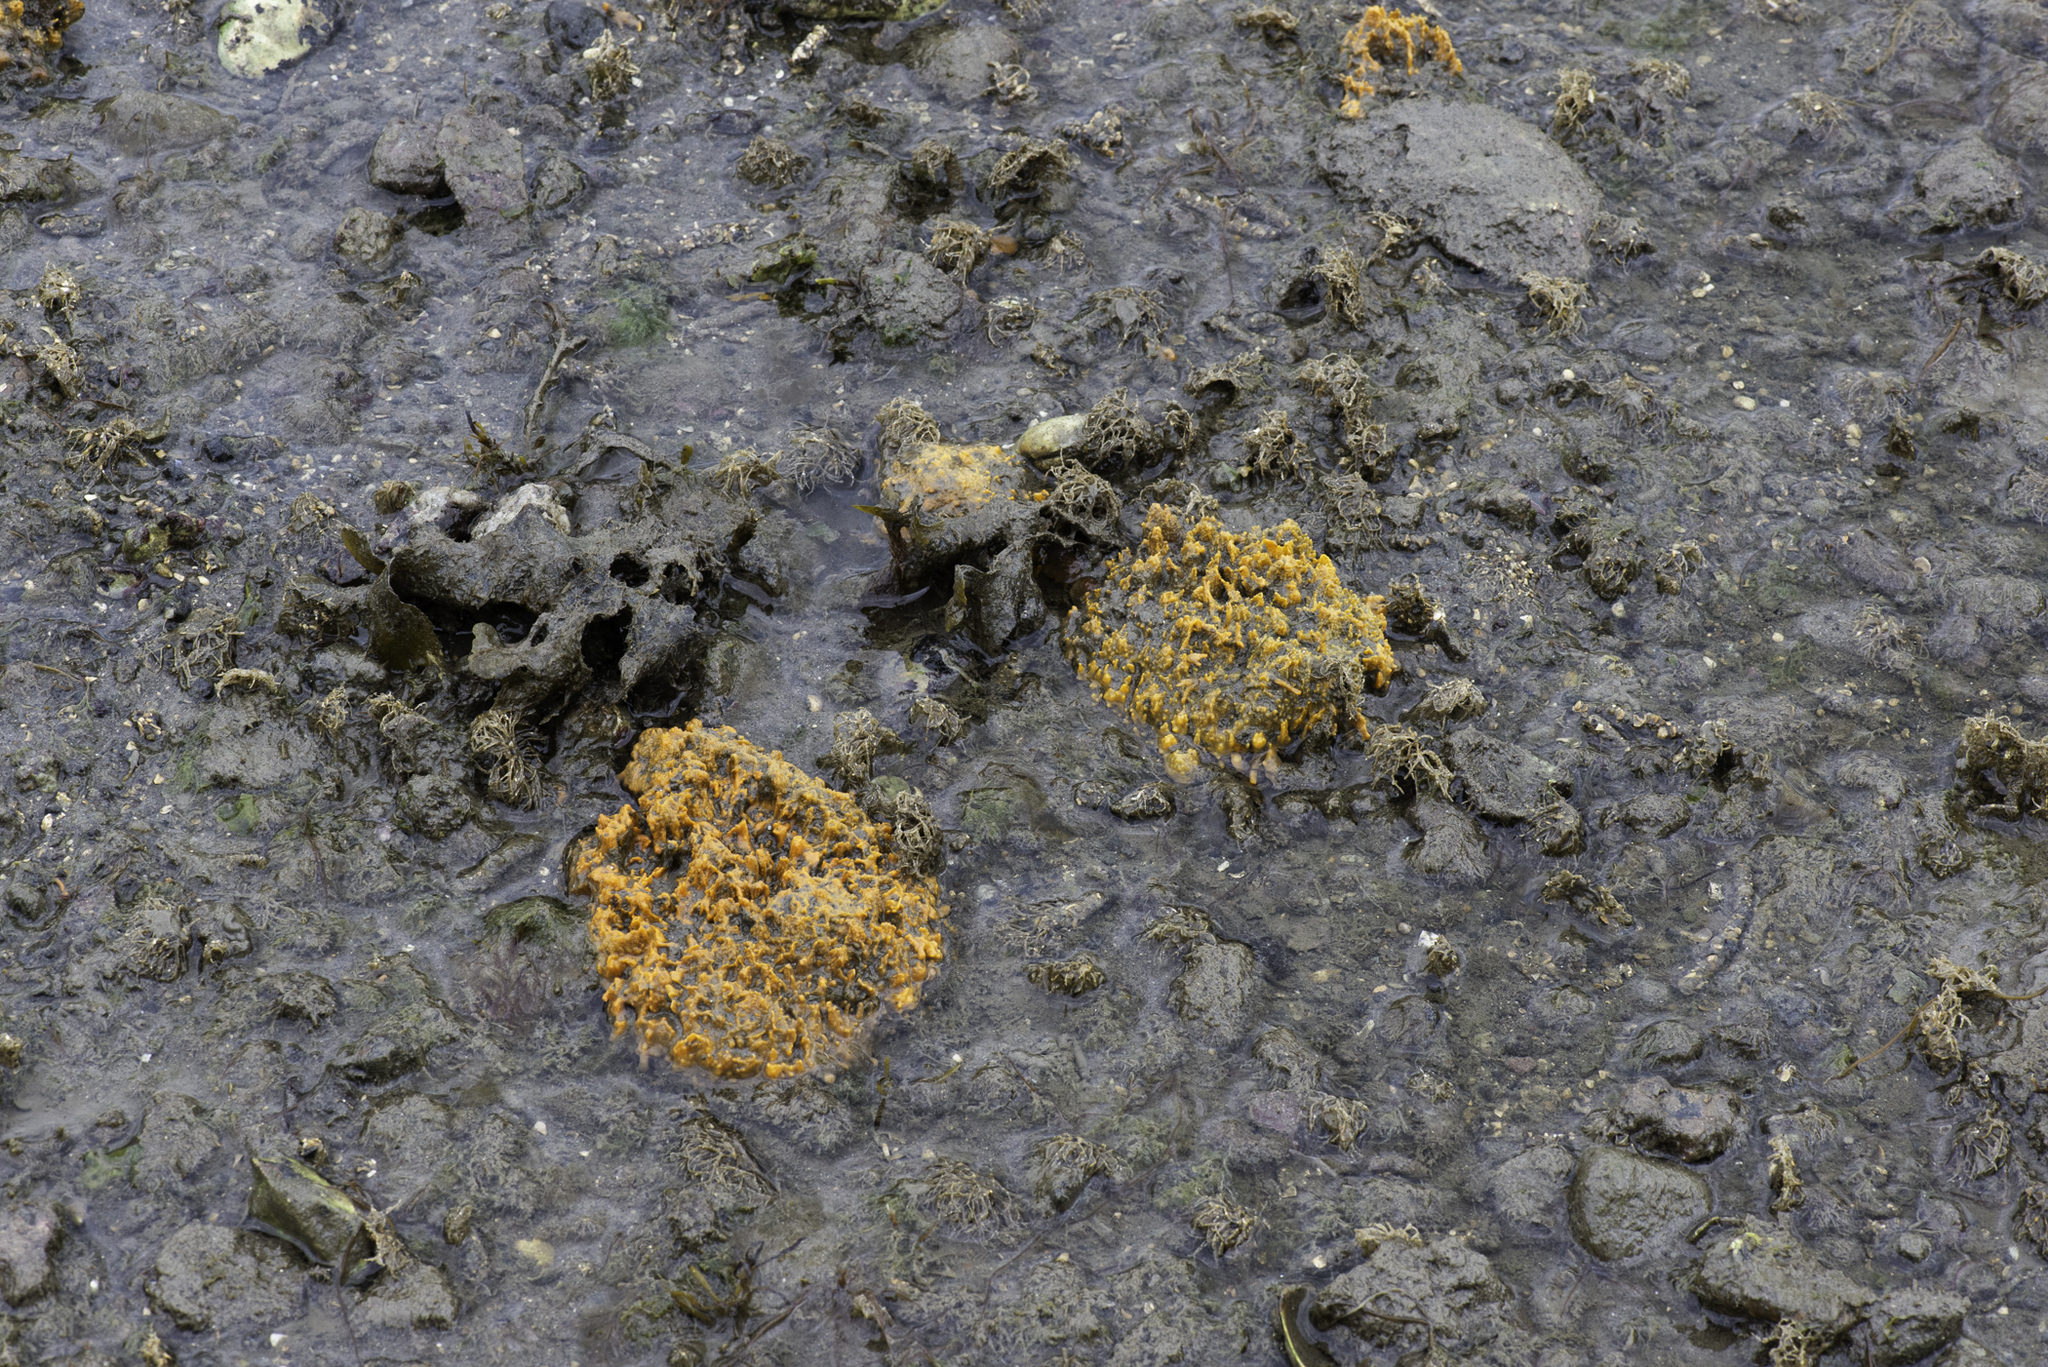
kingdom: Animalia
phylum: Porifera
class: Demospongiae
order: Suberitida
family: Halichondriidae
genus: Hymeniacidon
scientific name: Hymeniacidon perlevis
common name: Crumb-of-bread sponge
